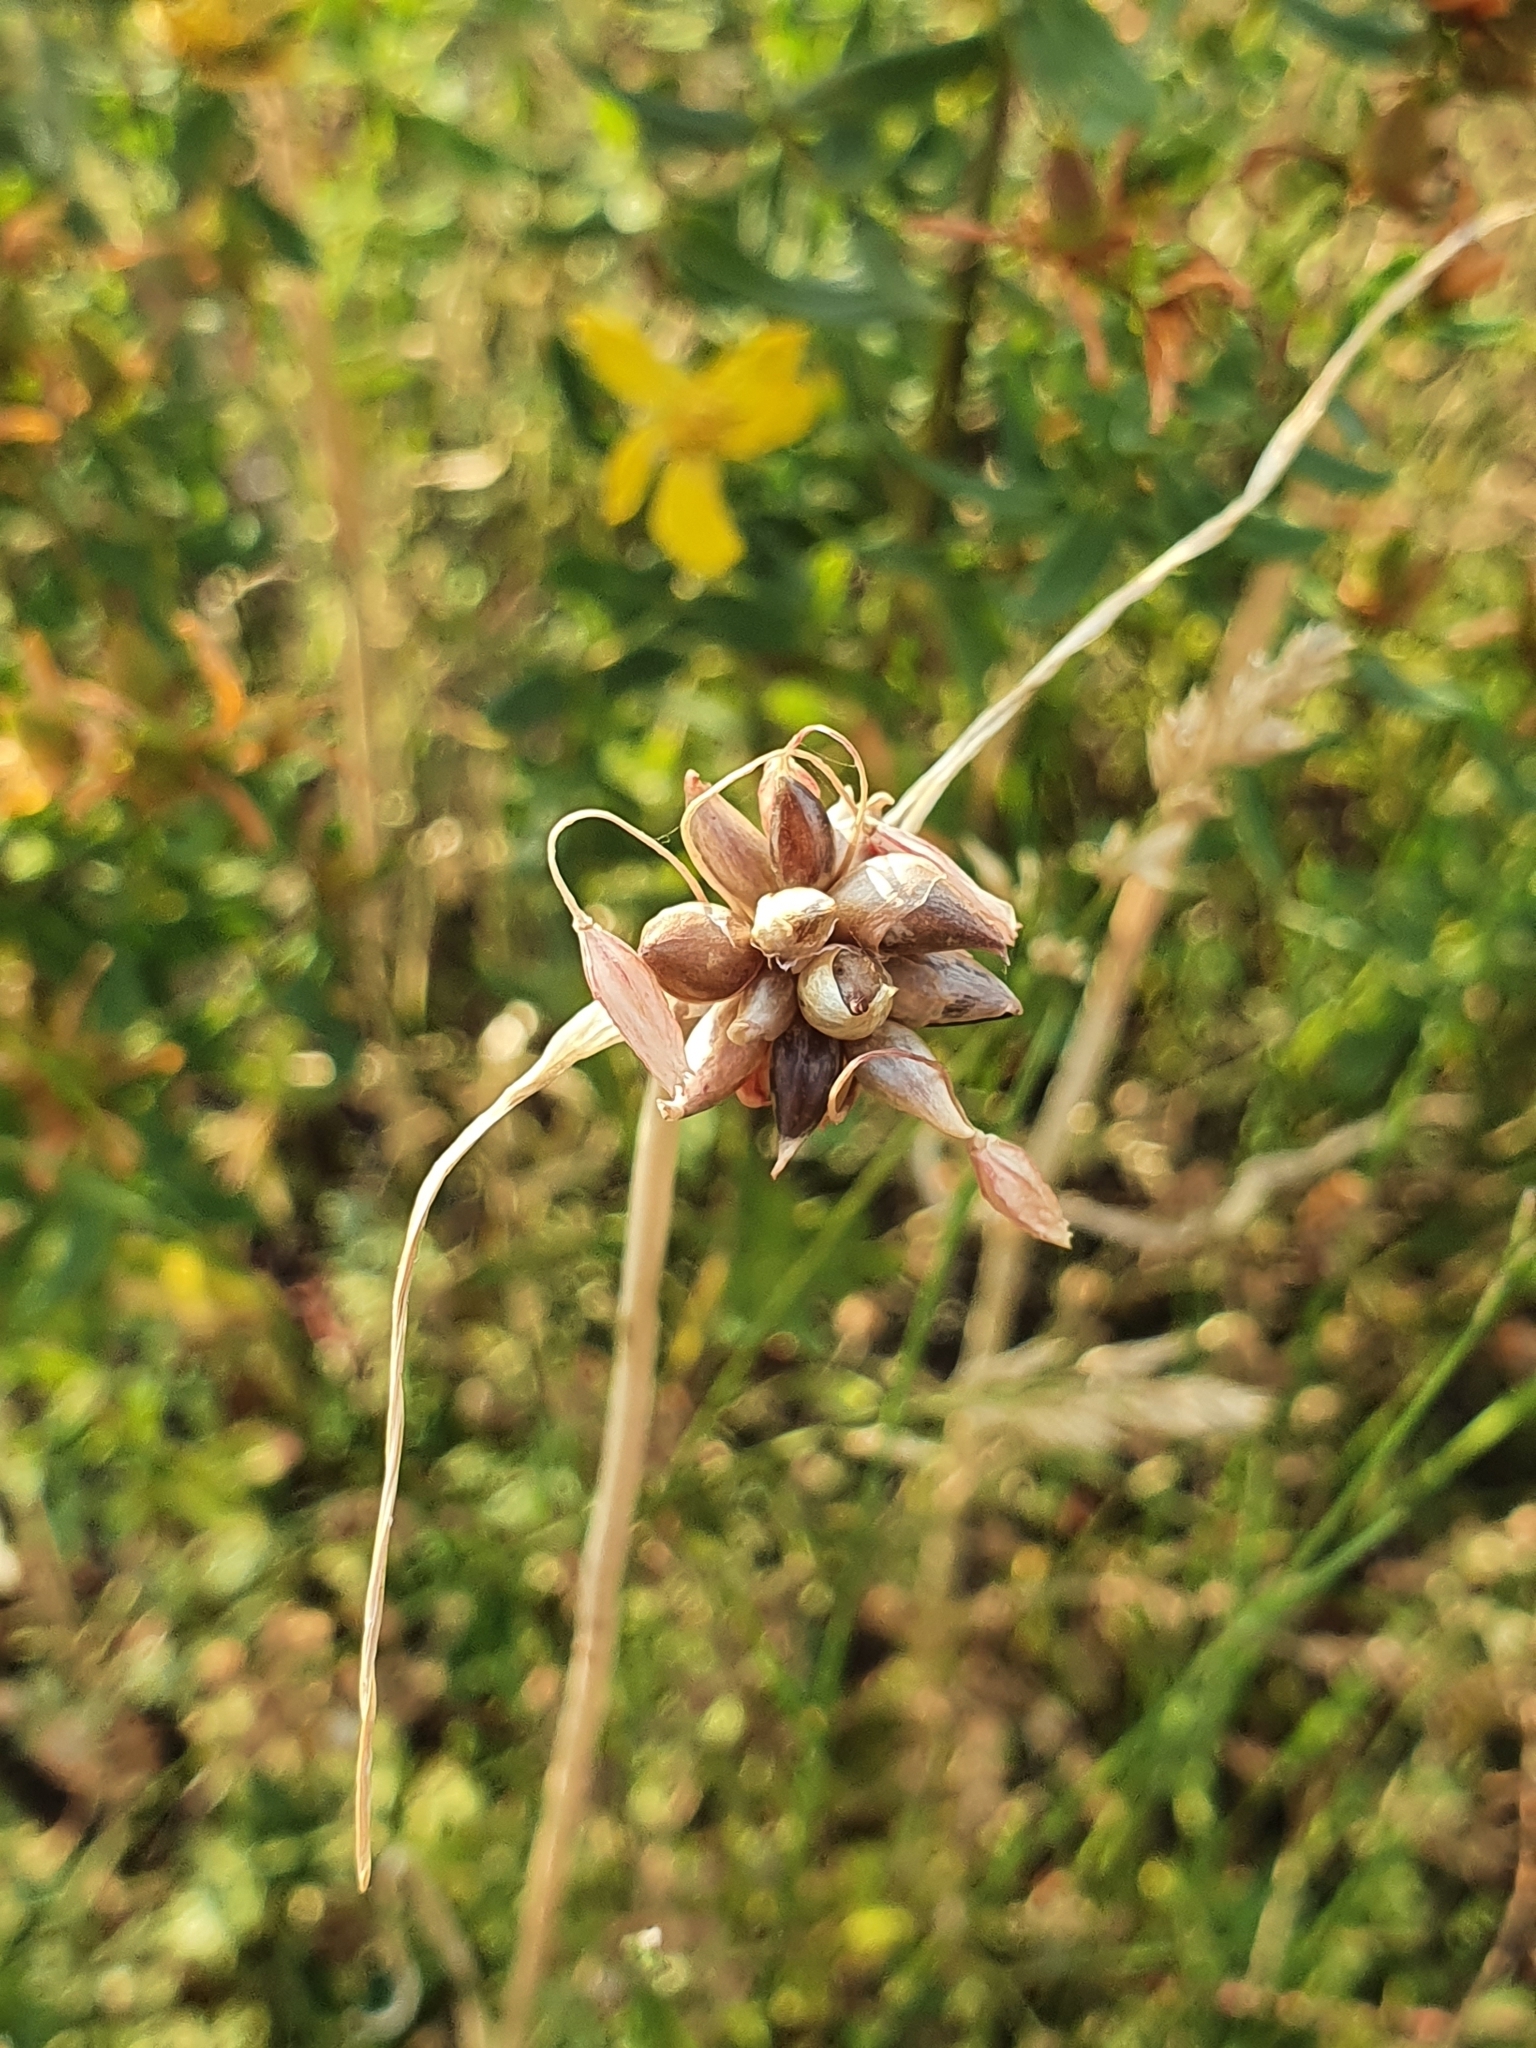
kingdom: Plantae
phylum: Tracheophyta
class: Liliopsida
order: Asparagales
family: Amaryllidaceae
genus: Allium
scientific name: Allium oleraceum
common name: Field garlic
